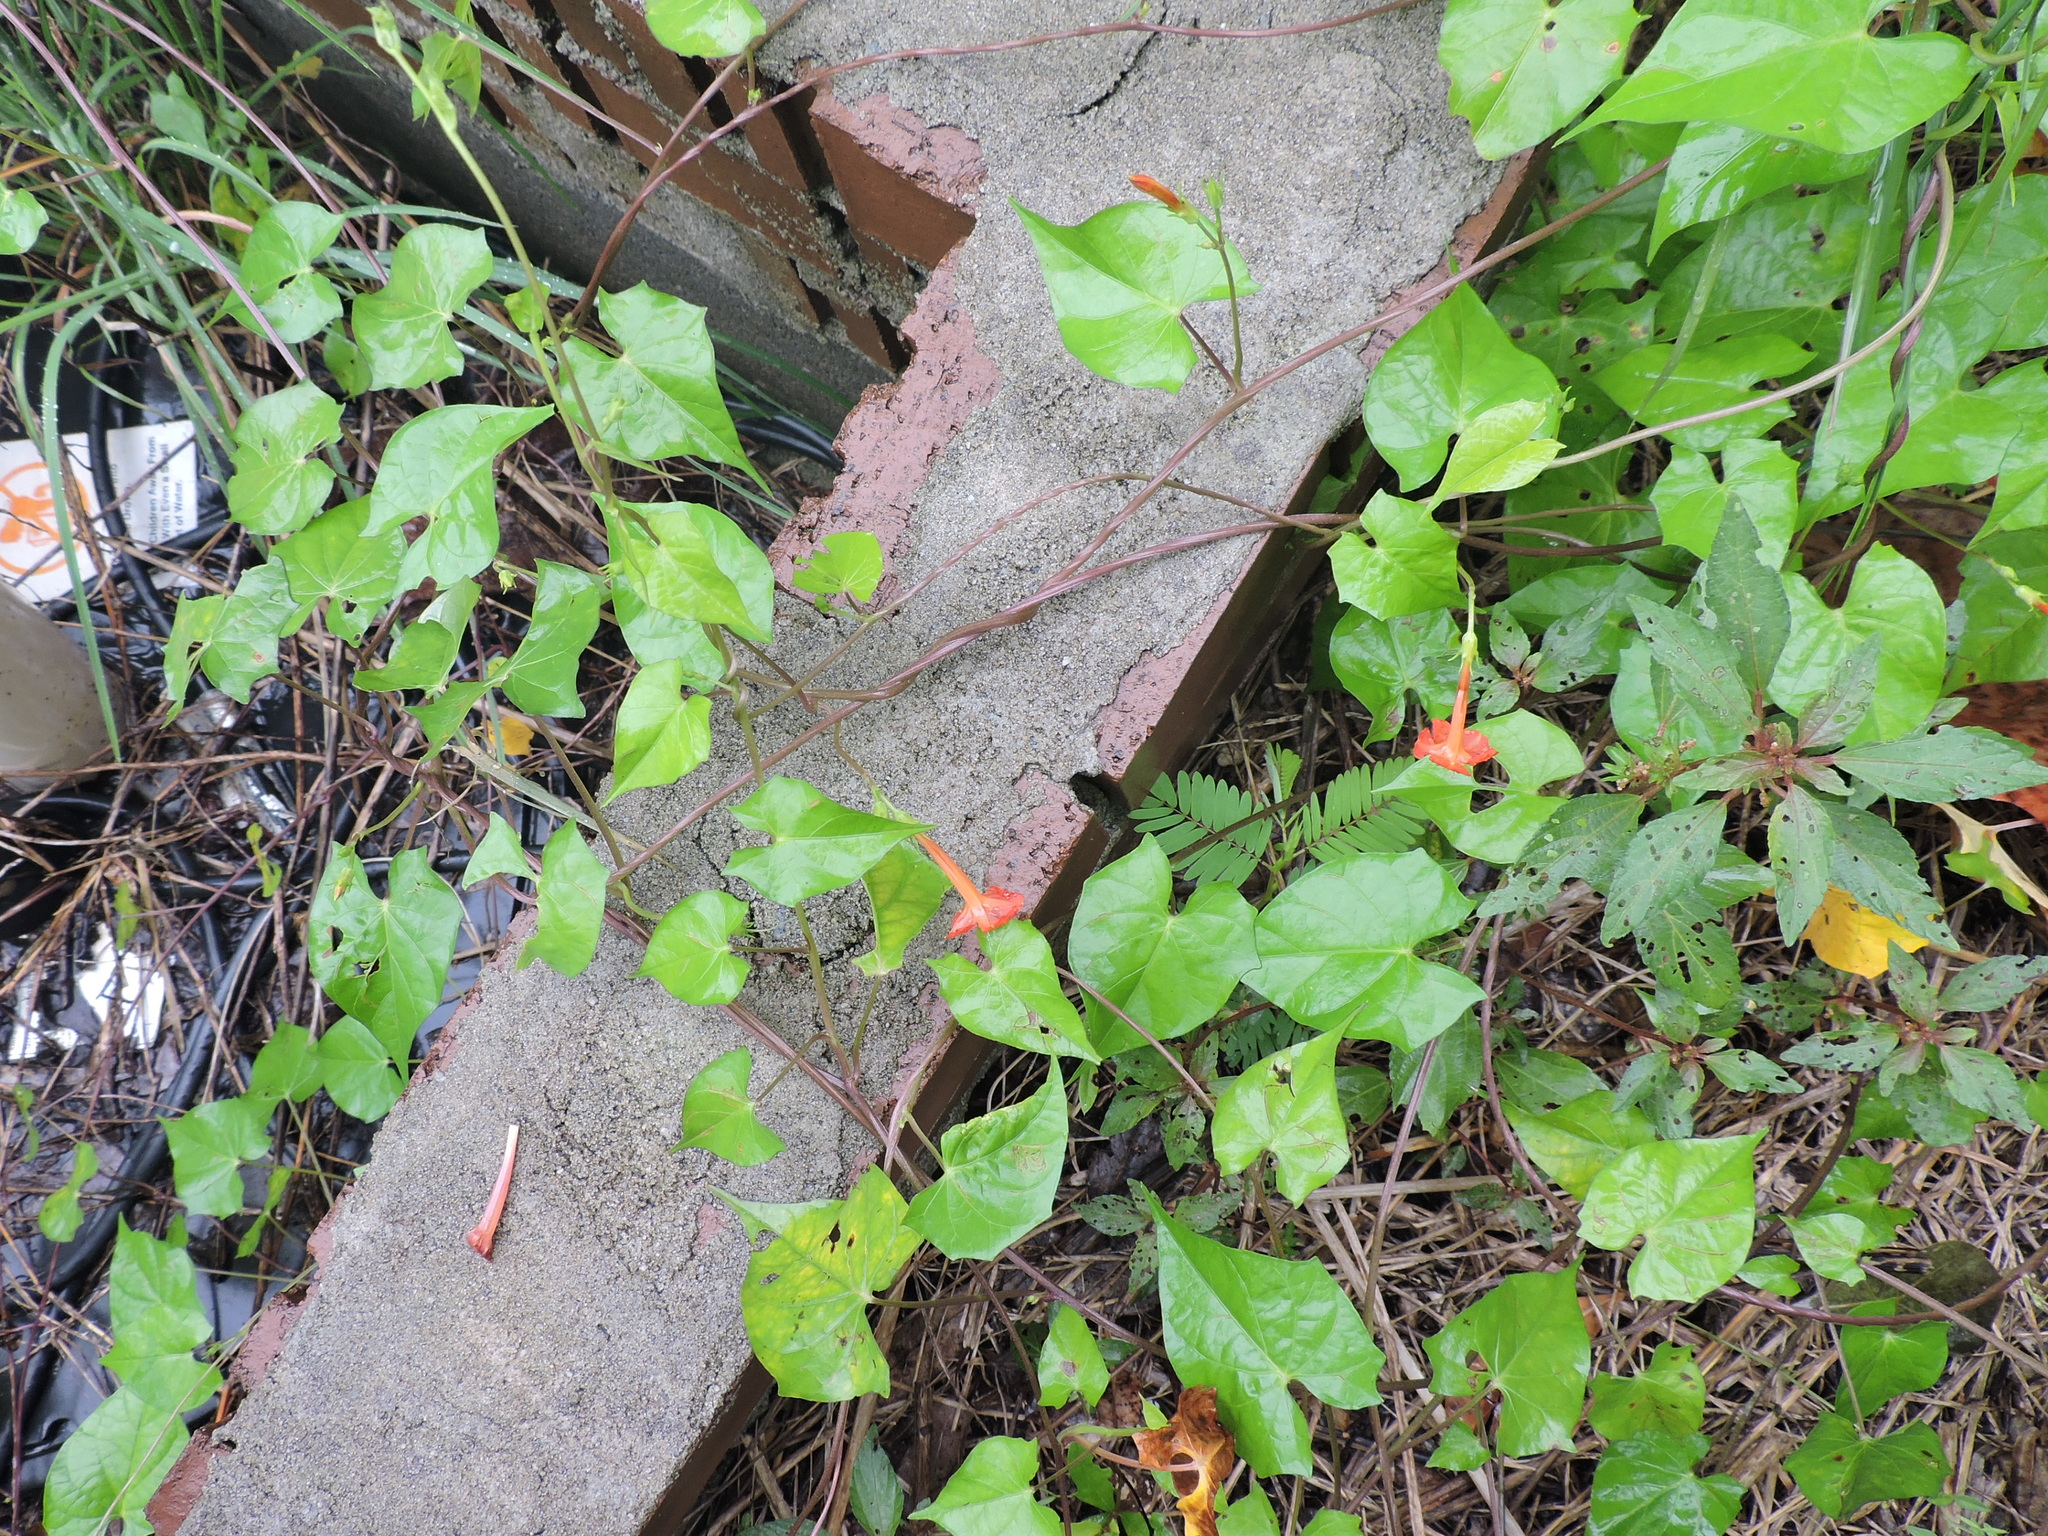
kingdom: Plantae
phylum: Tracheophyta
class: Magnoliopsida
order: Solanales
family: Convolvulaceae
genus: Ipomoea
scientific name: Ipomoea coccinea
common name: Red morning-glory
